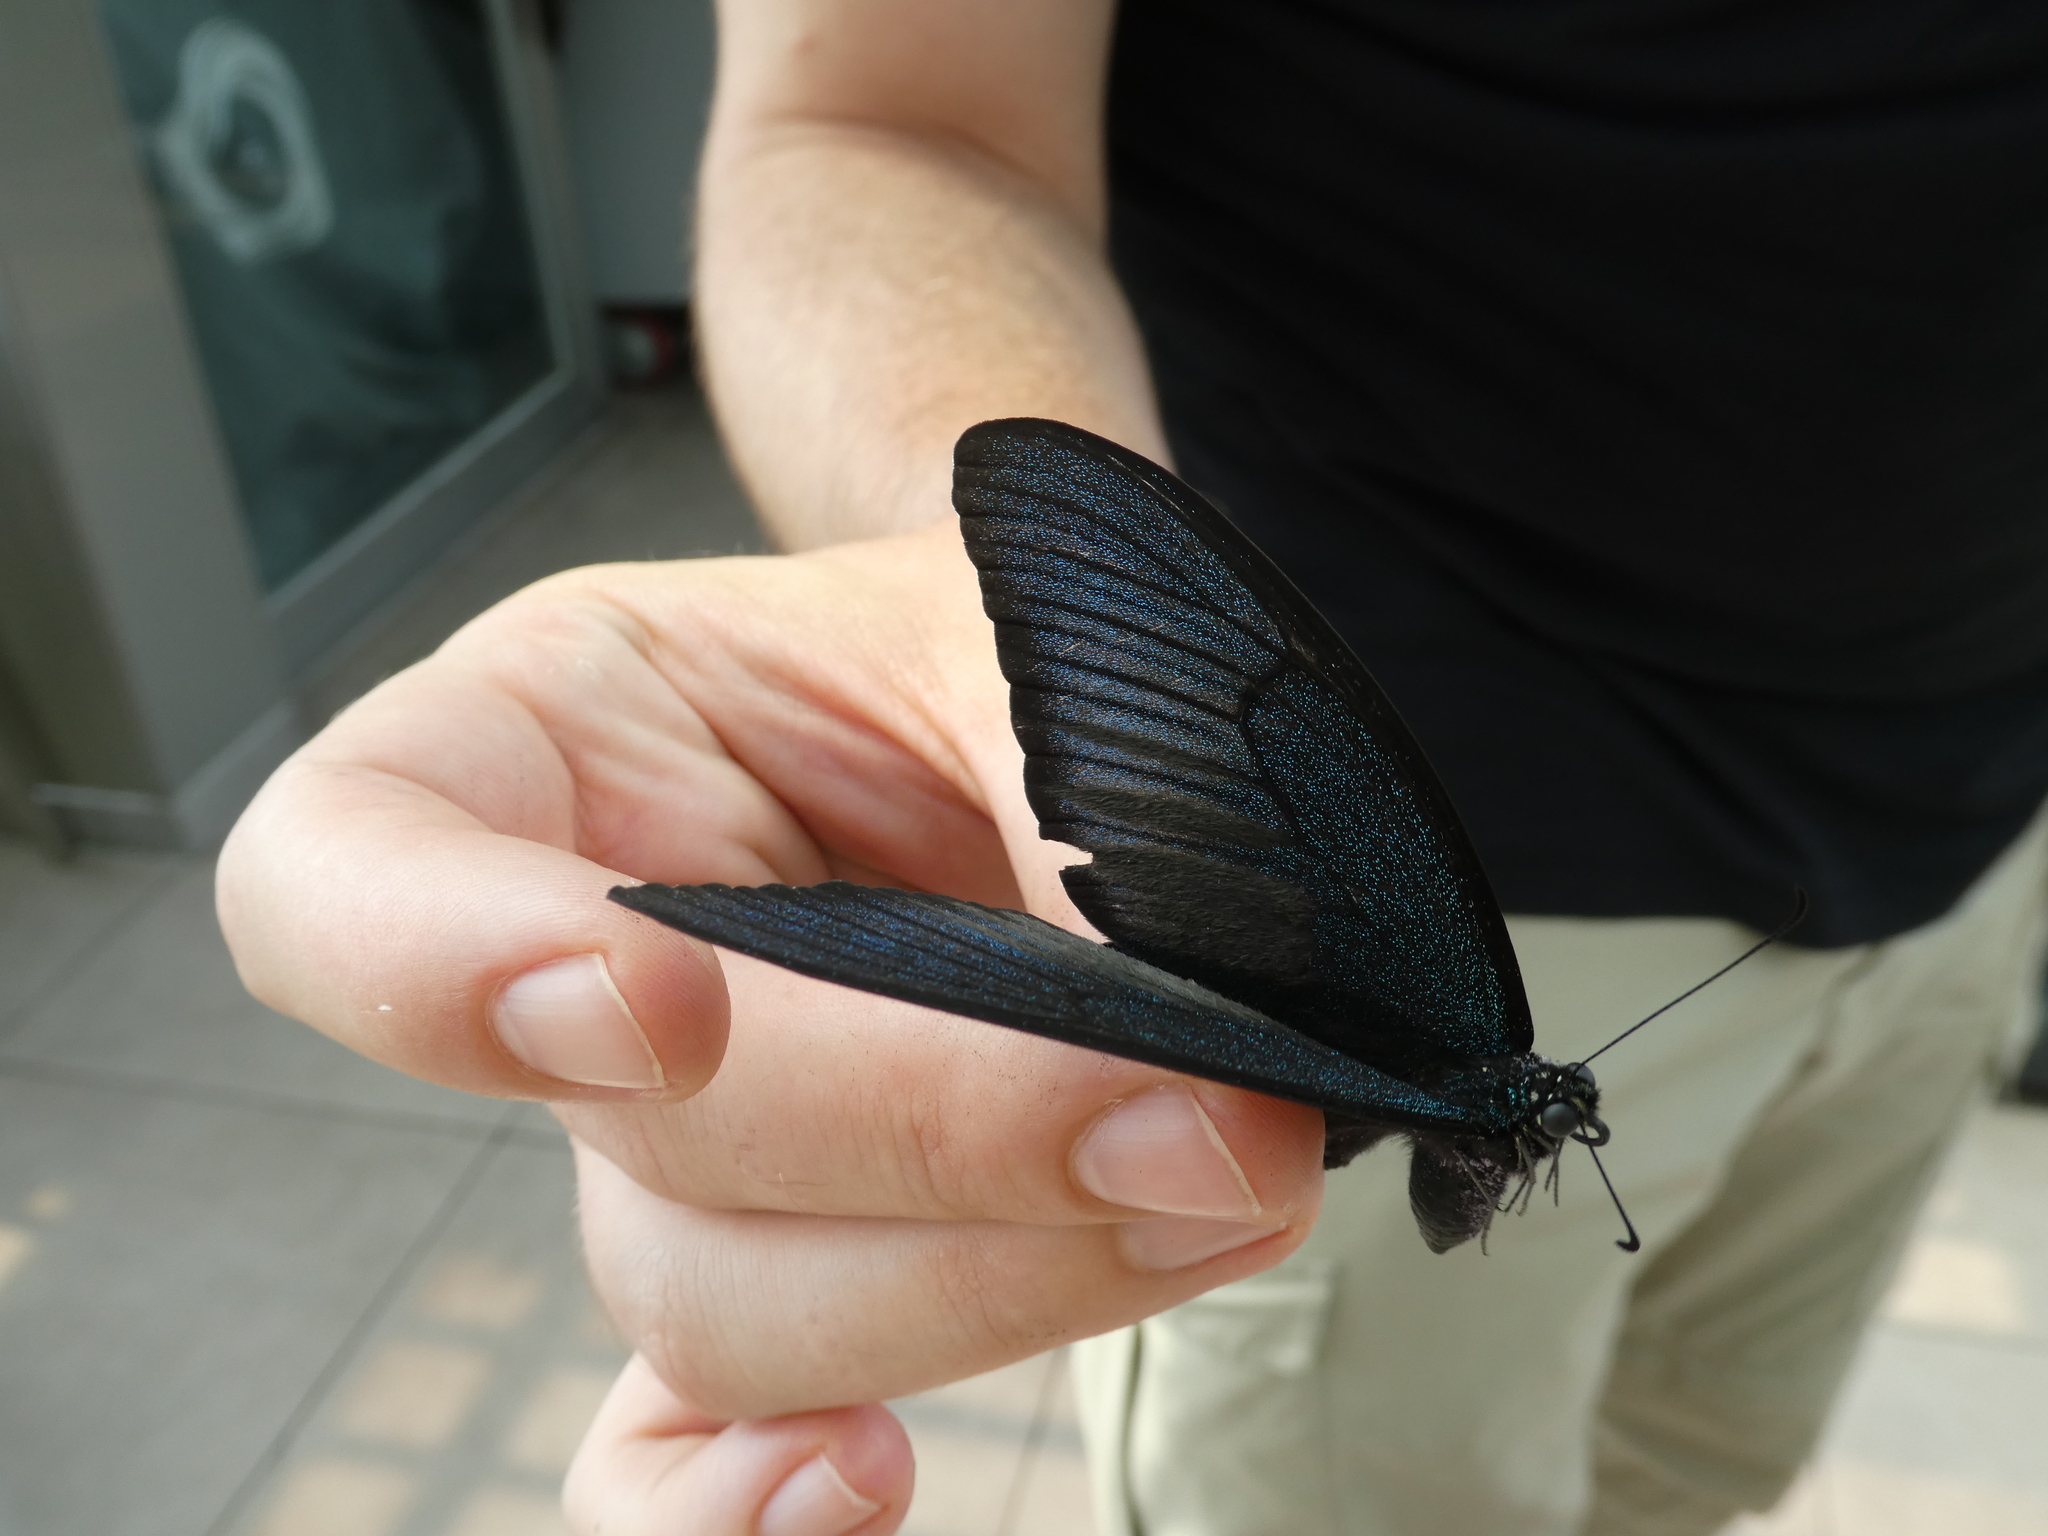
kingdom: Animalia
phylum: Arthropoda
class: Insecta
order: Lepidoptera
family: Papilionidae
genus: Papilio
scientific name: Papilio dehaanii
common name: Japanese peacock swallowtail
